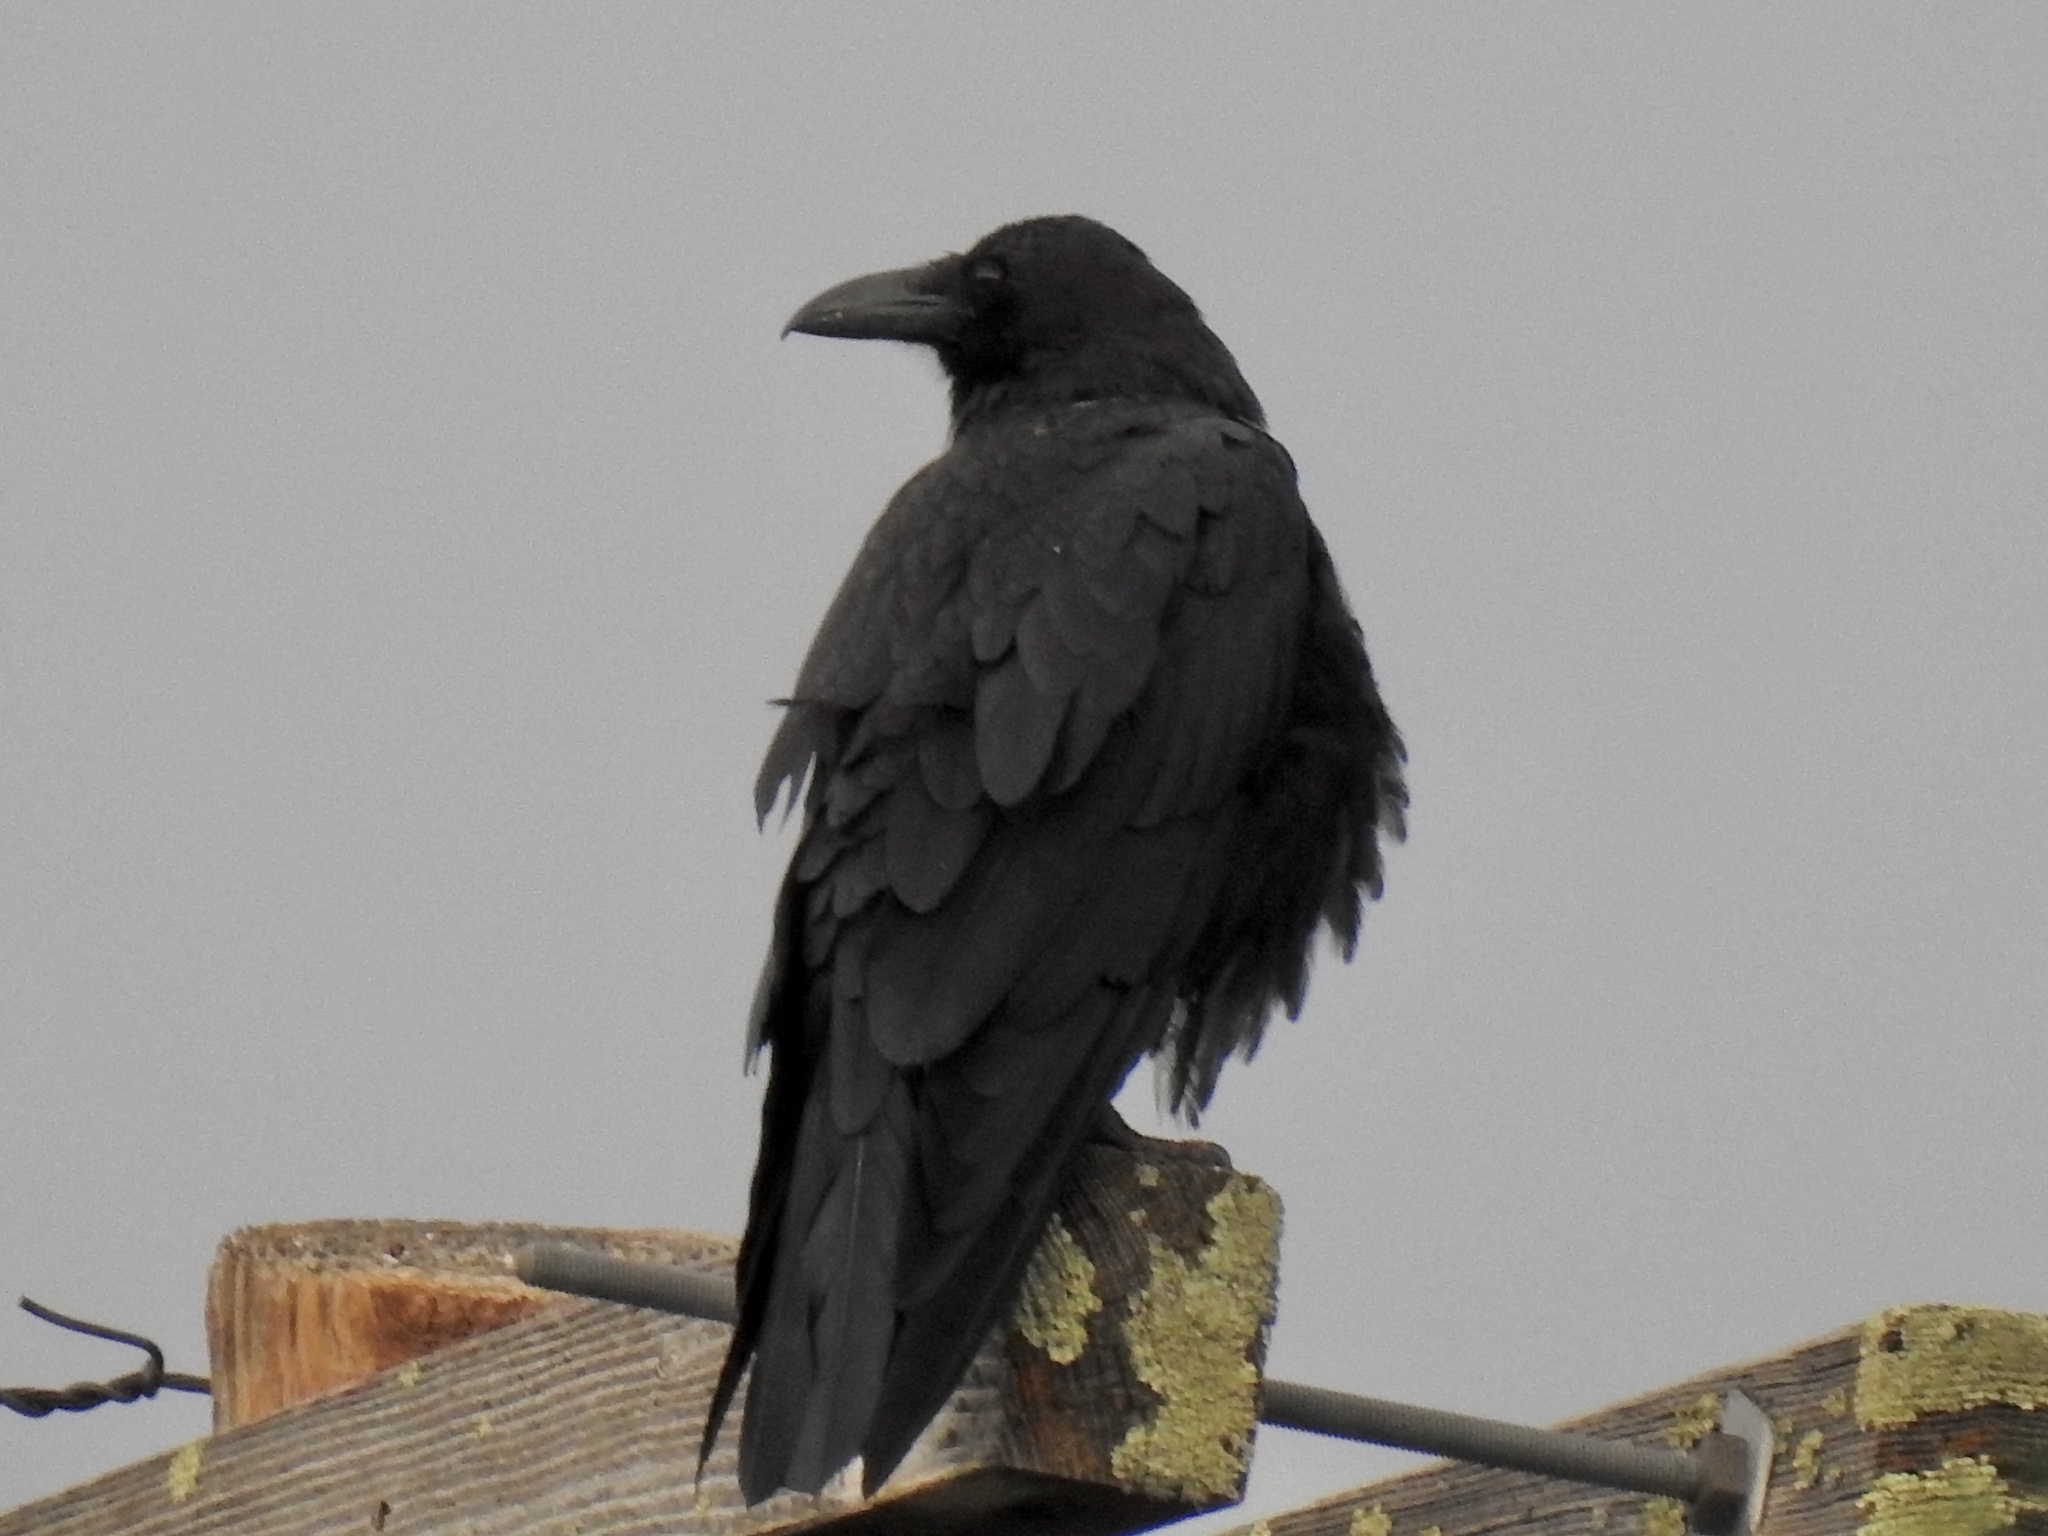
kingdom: Animalia
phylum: Chordata
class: Aves
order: Passeriformes
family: Corvidae
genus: Corvus
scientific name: Corvus corax
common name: Common raven
